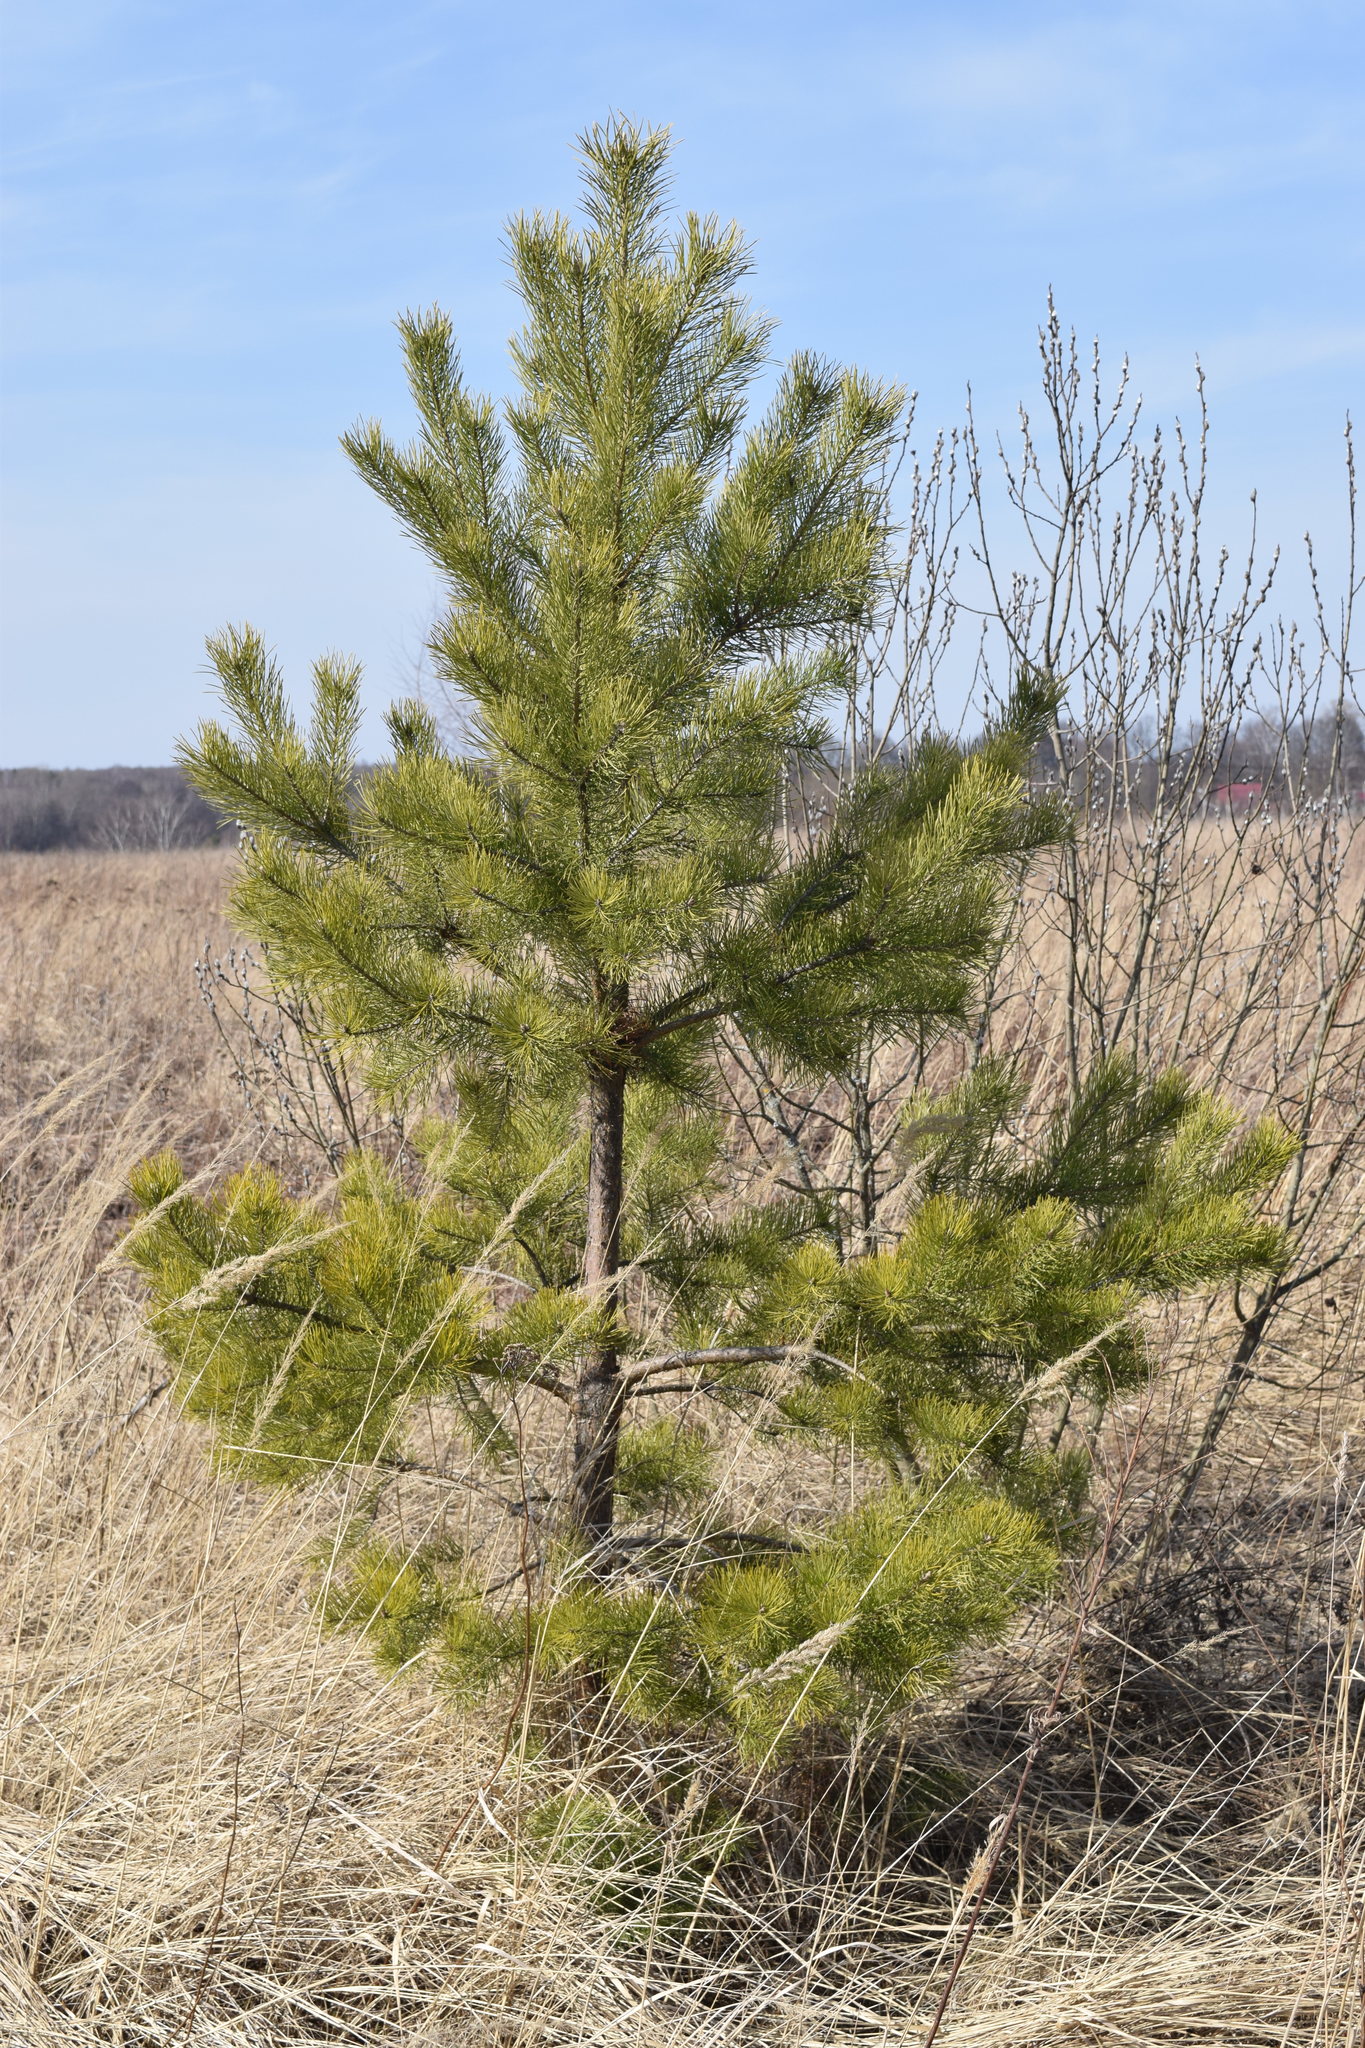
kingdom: Plantae
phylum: Tracheophyta
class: Pinopsida
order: Pinales
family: Pinaceae
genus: Pinus
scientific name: Pinus sylvestris
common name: Scots pine
